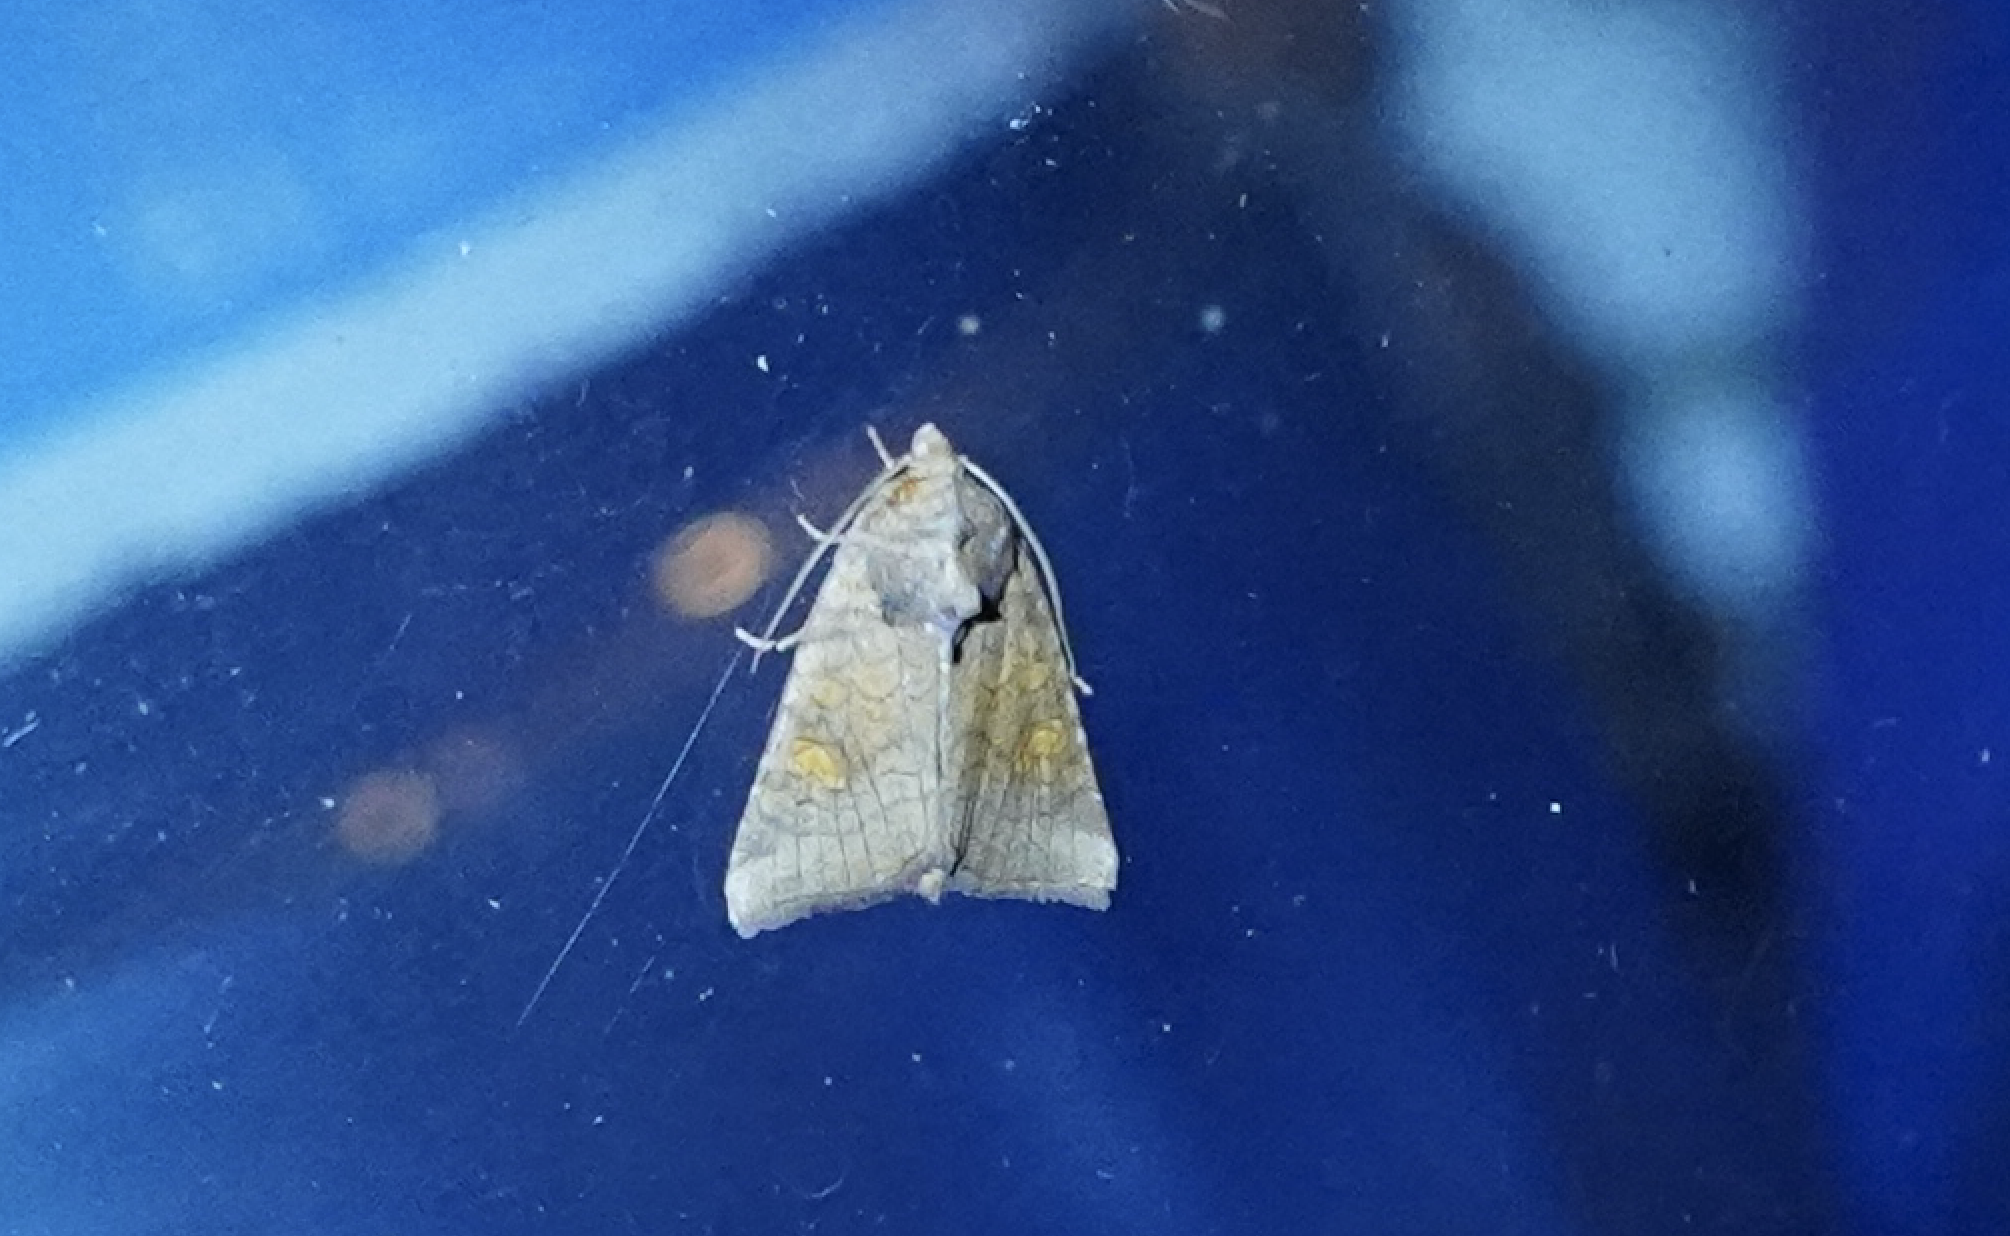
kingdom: Animalia
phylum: Arthropoda
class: Insecta
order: Lepidoptera
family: Noctuidae
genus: Amphipoea
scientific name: Amphipoea americana
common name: American ear moth
